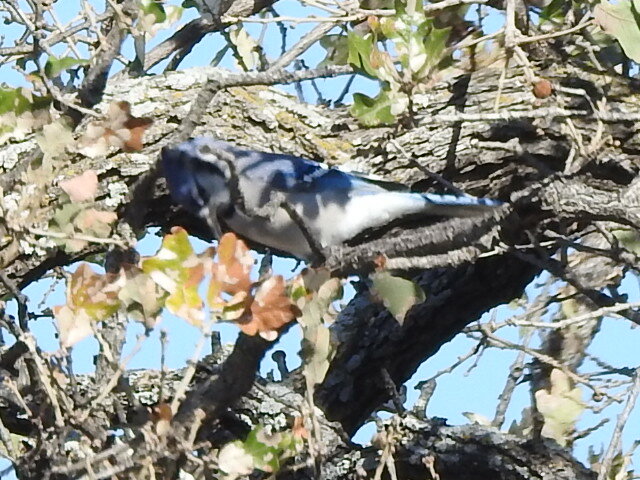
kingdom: Animalia
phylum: Chordata
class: Aves
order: Passeriformes
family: Corvidae
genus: Cyanocitta
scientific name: Cyanocitta cristata
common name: Blue jay
